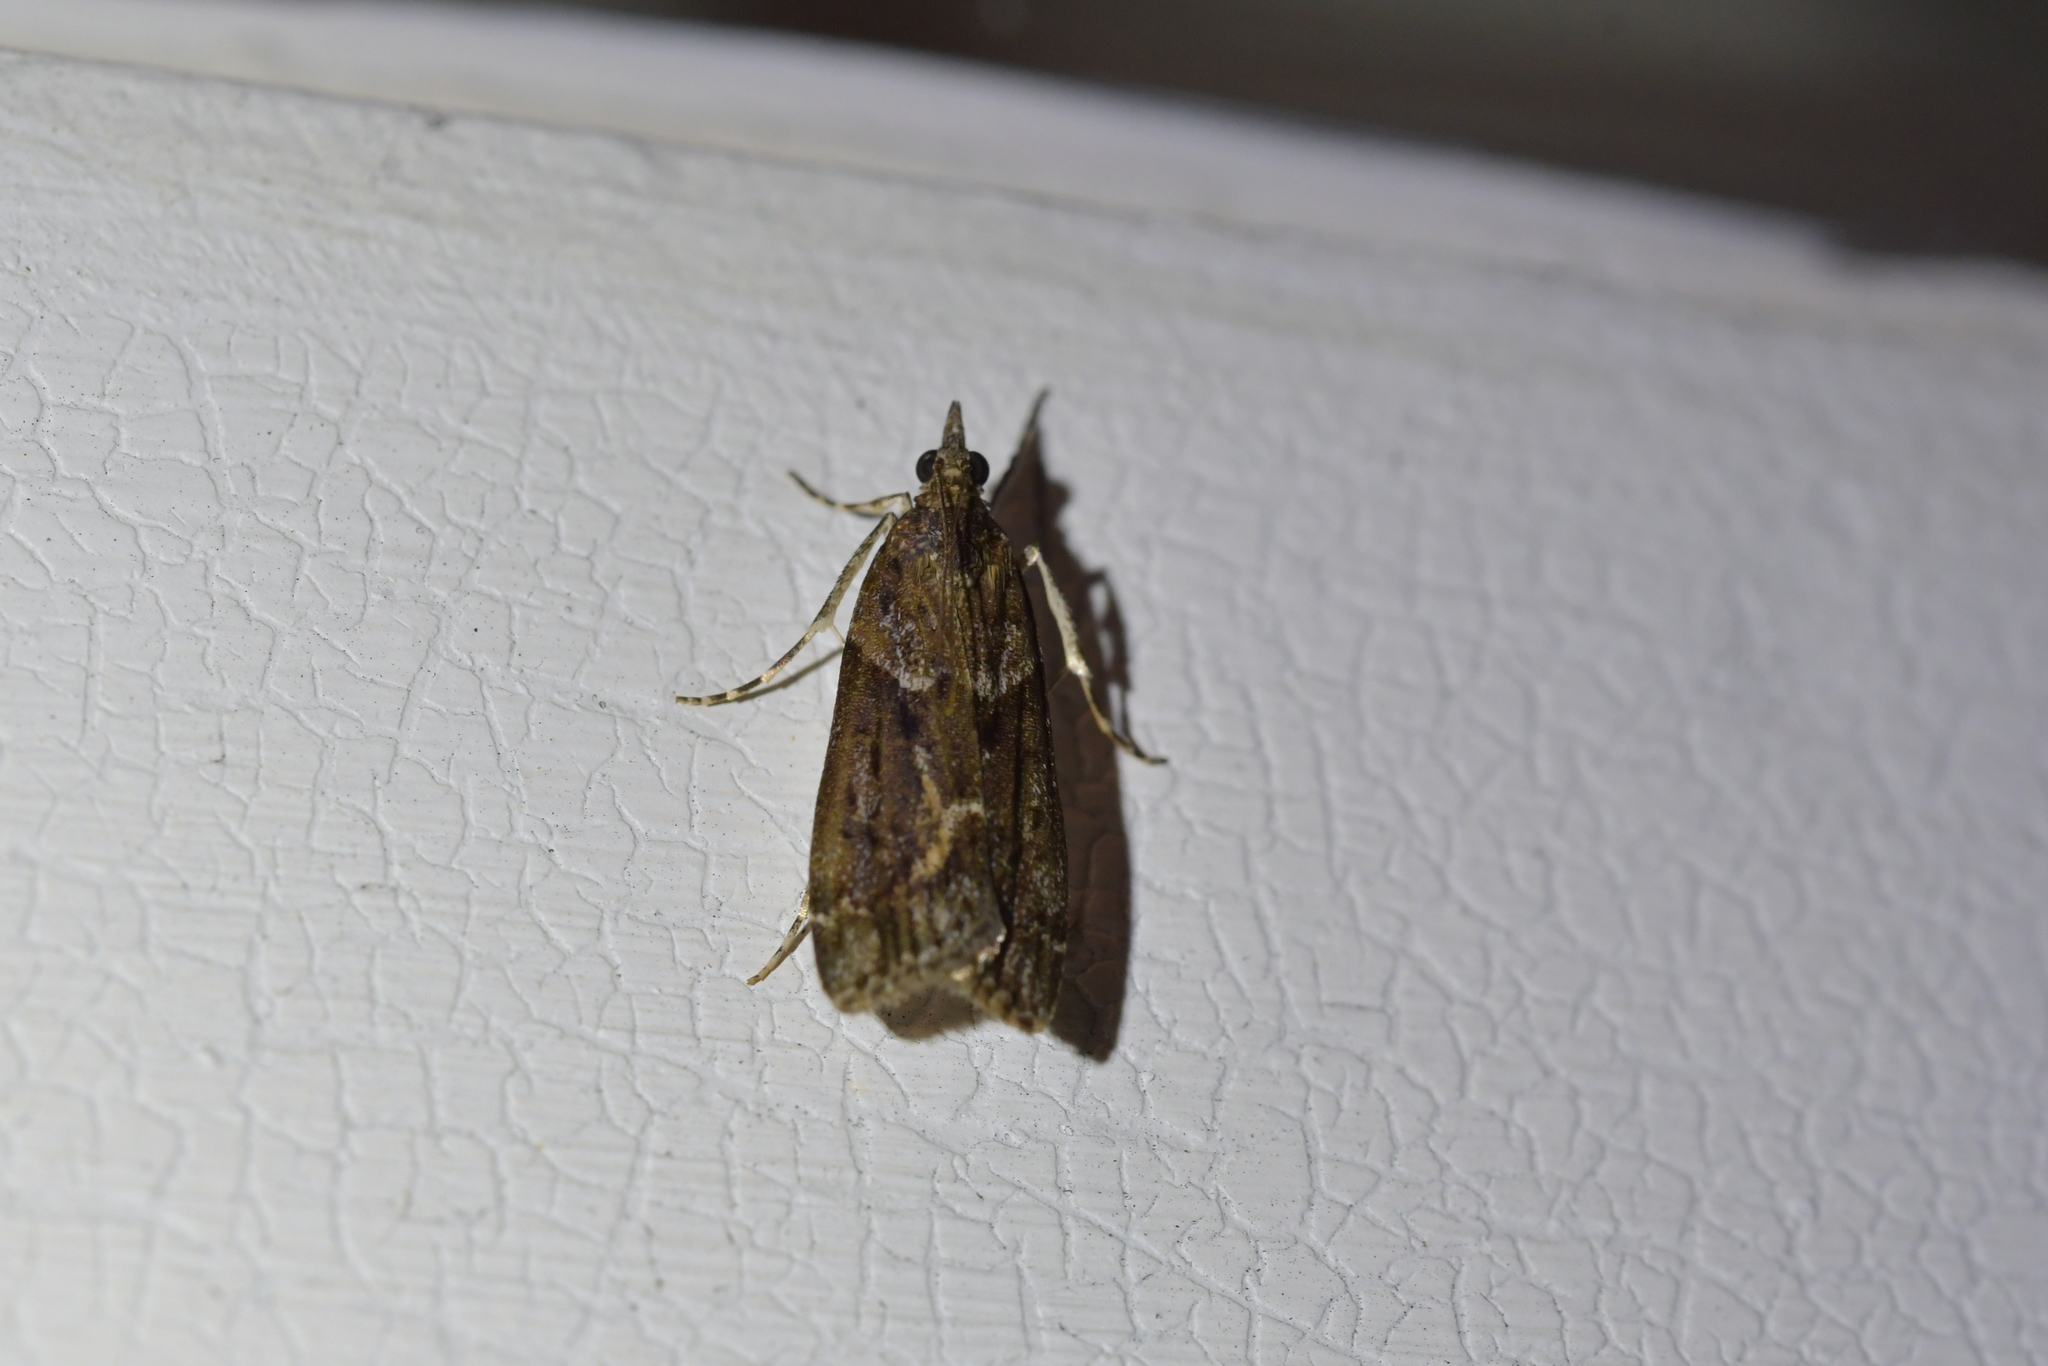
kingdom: Animalia
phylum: Arthropoda
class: Insecta
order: Lepidoptera
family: Crambidae
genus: Eudonia
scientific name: Eudonia submarginalis
